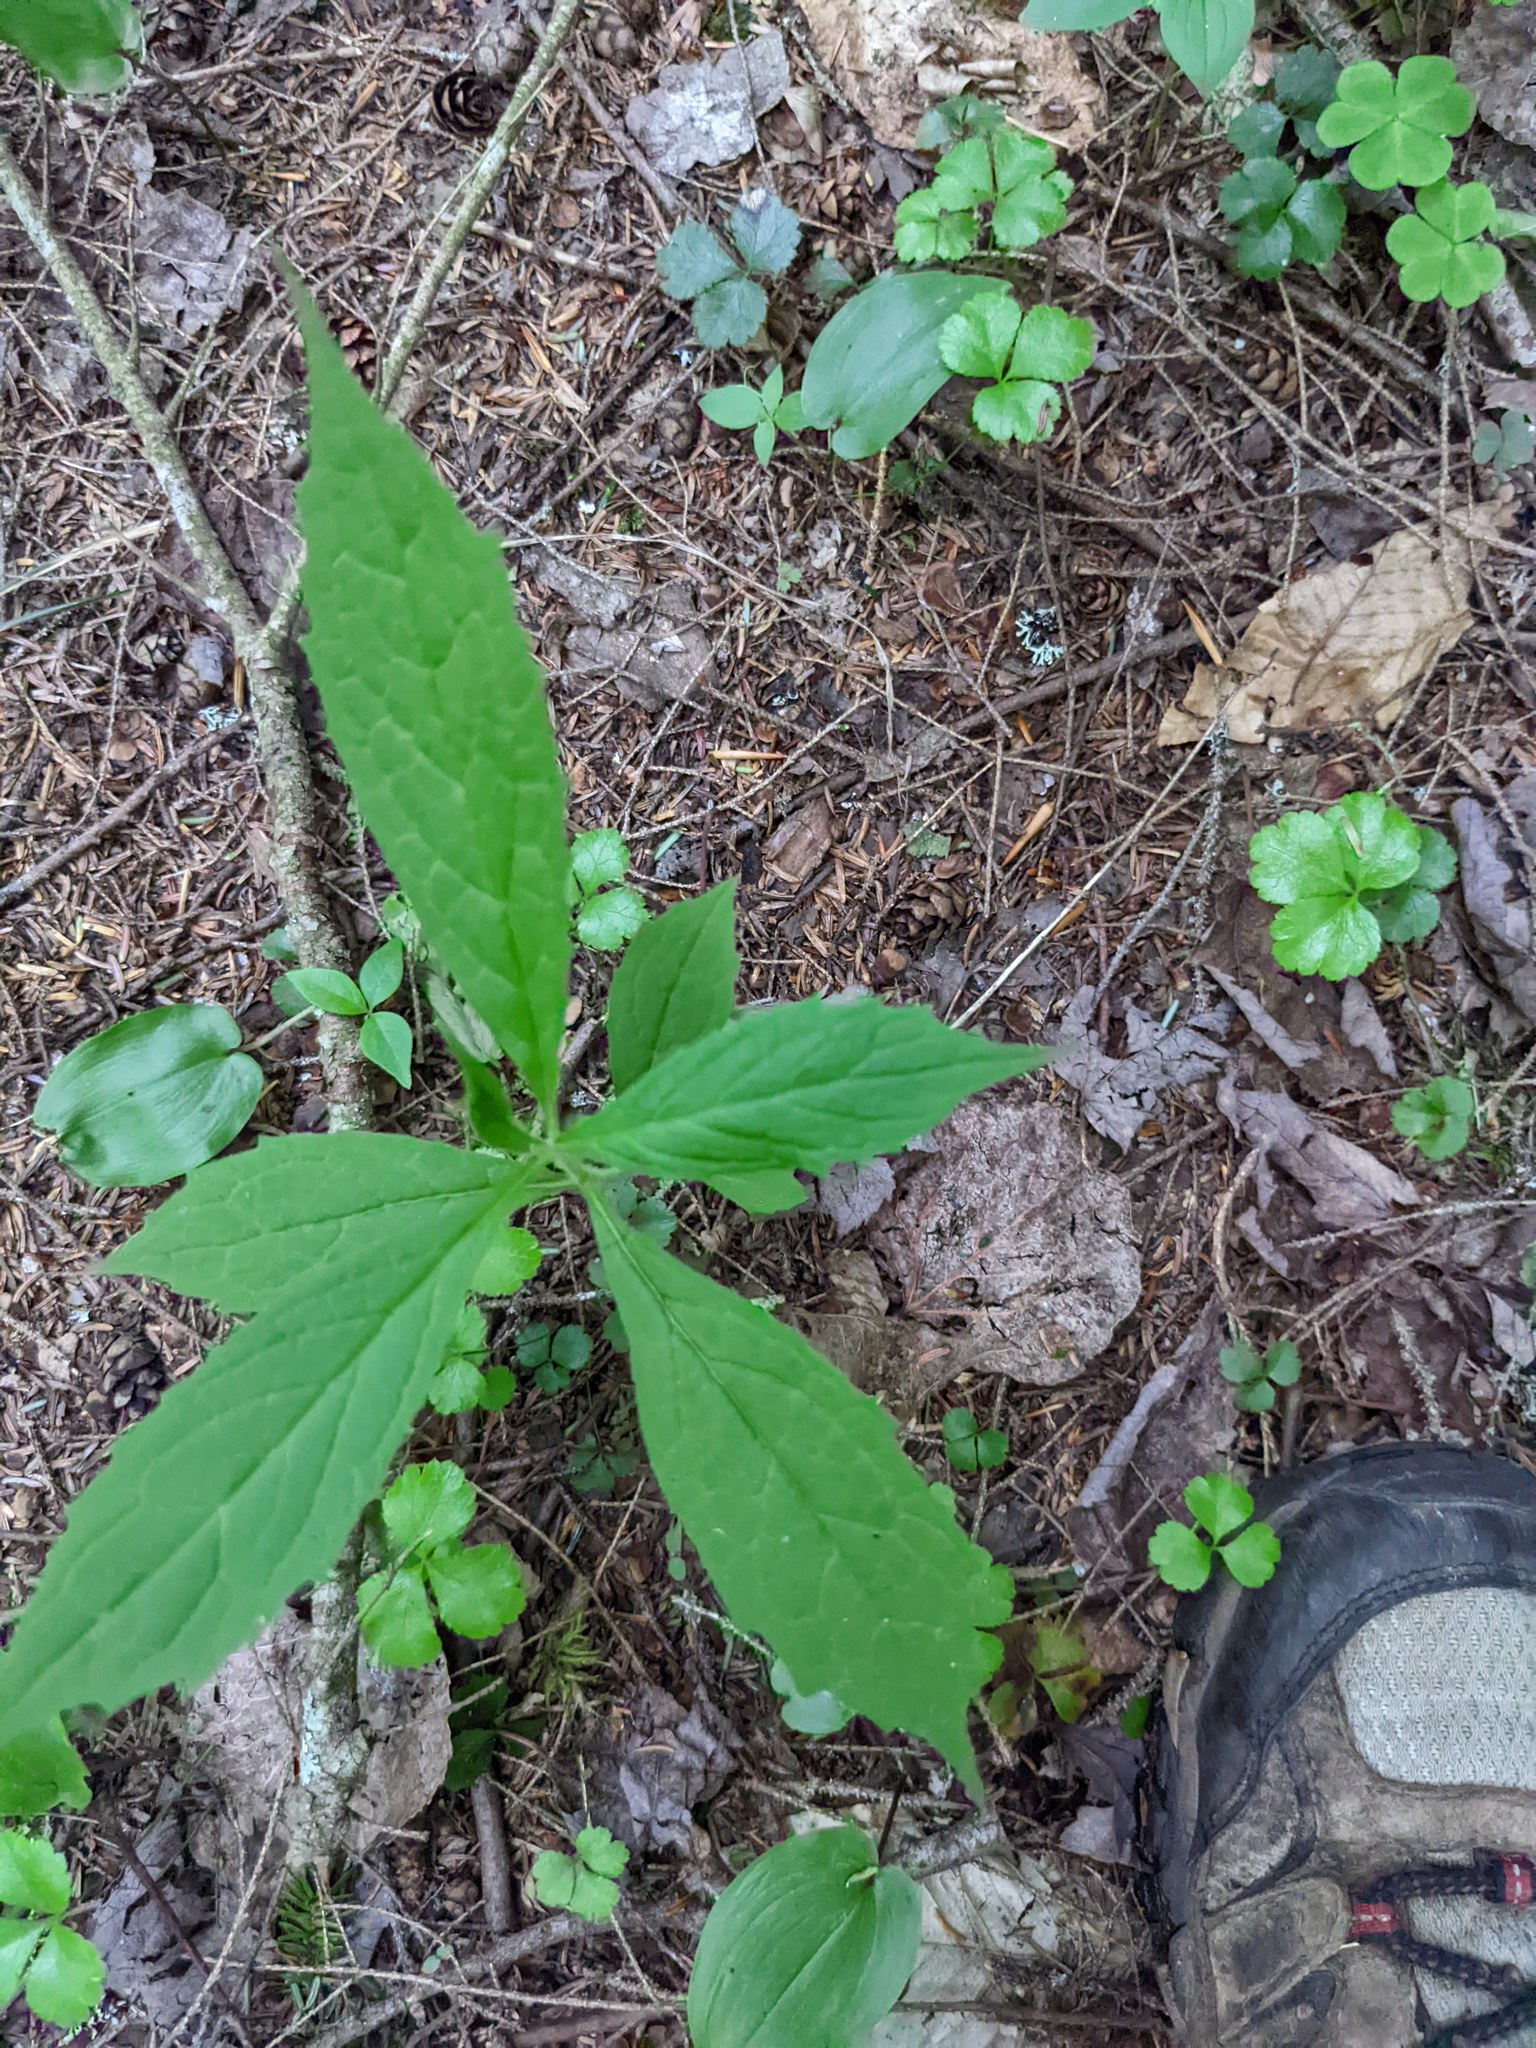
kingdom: Plantae
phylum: Tracheophyta
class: Magnoliopsida
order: Ranunculales
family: Ranunculaceae
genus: Coptis
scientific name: Coptis trifolia
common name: Canker-root
